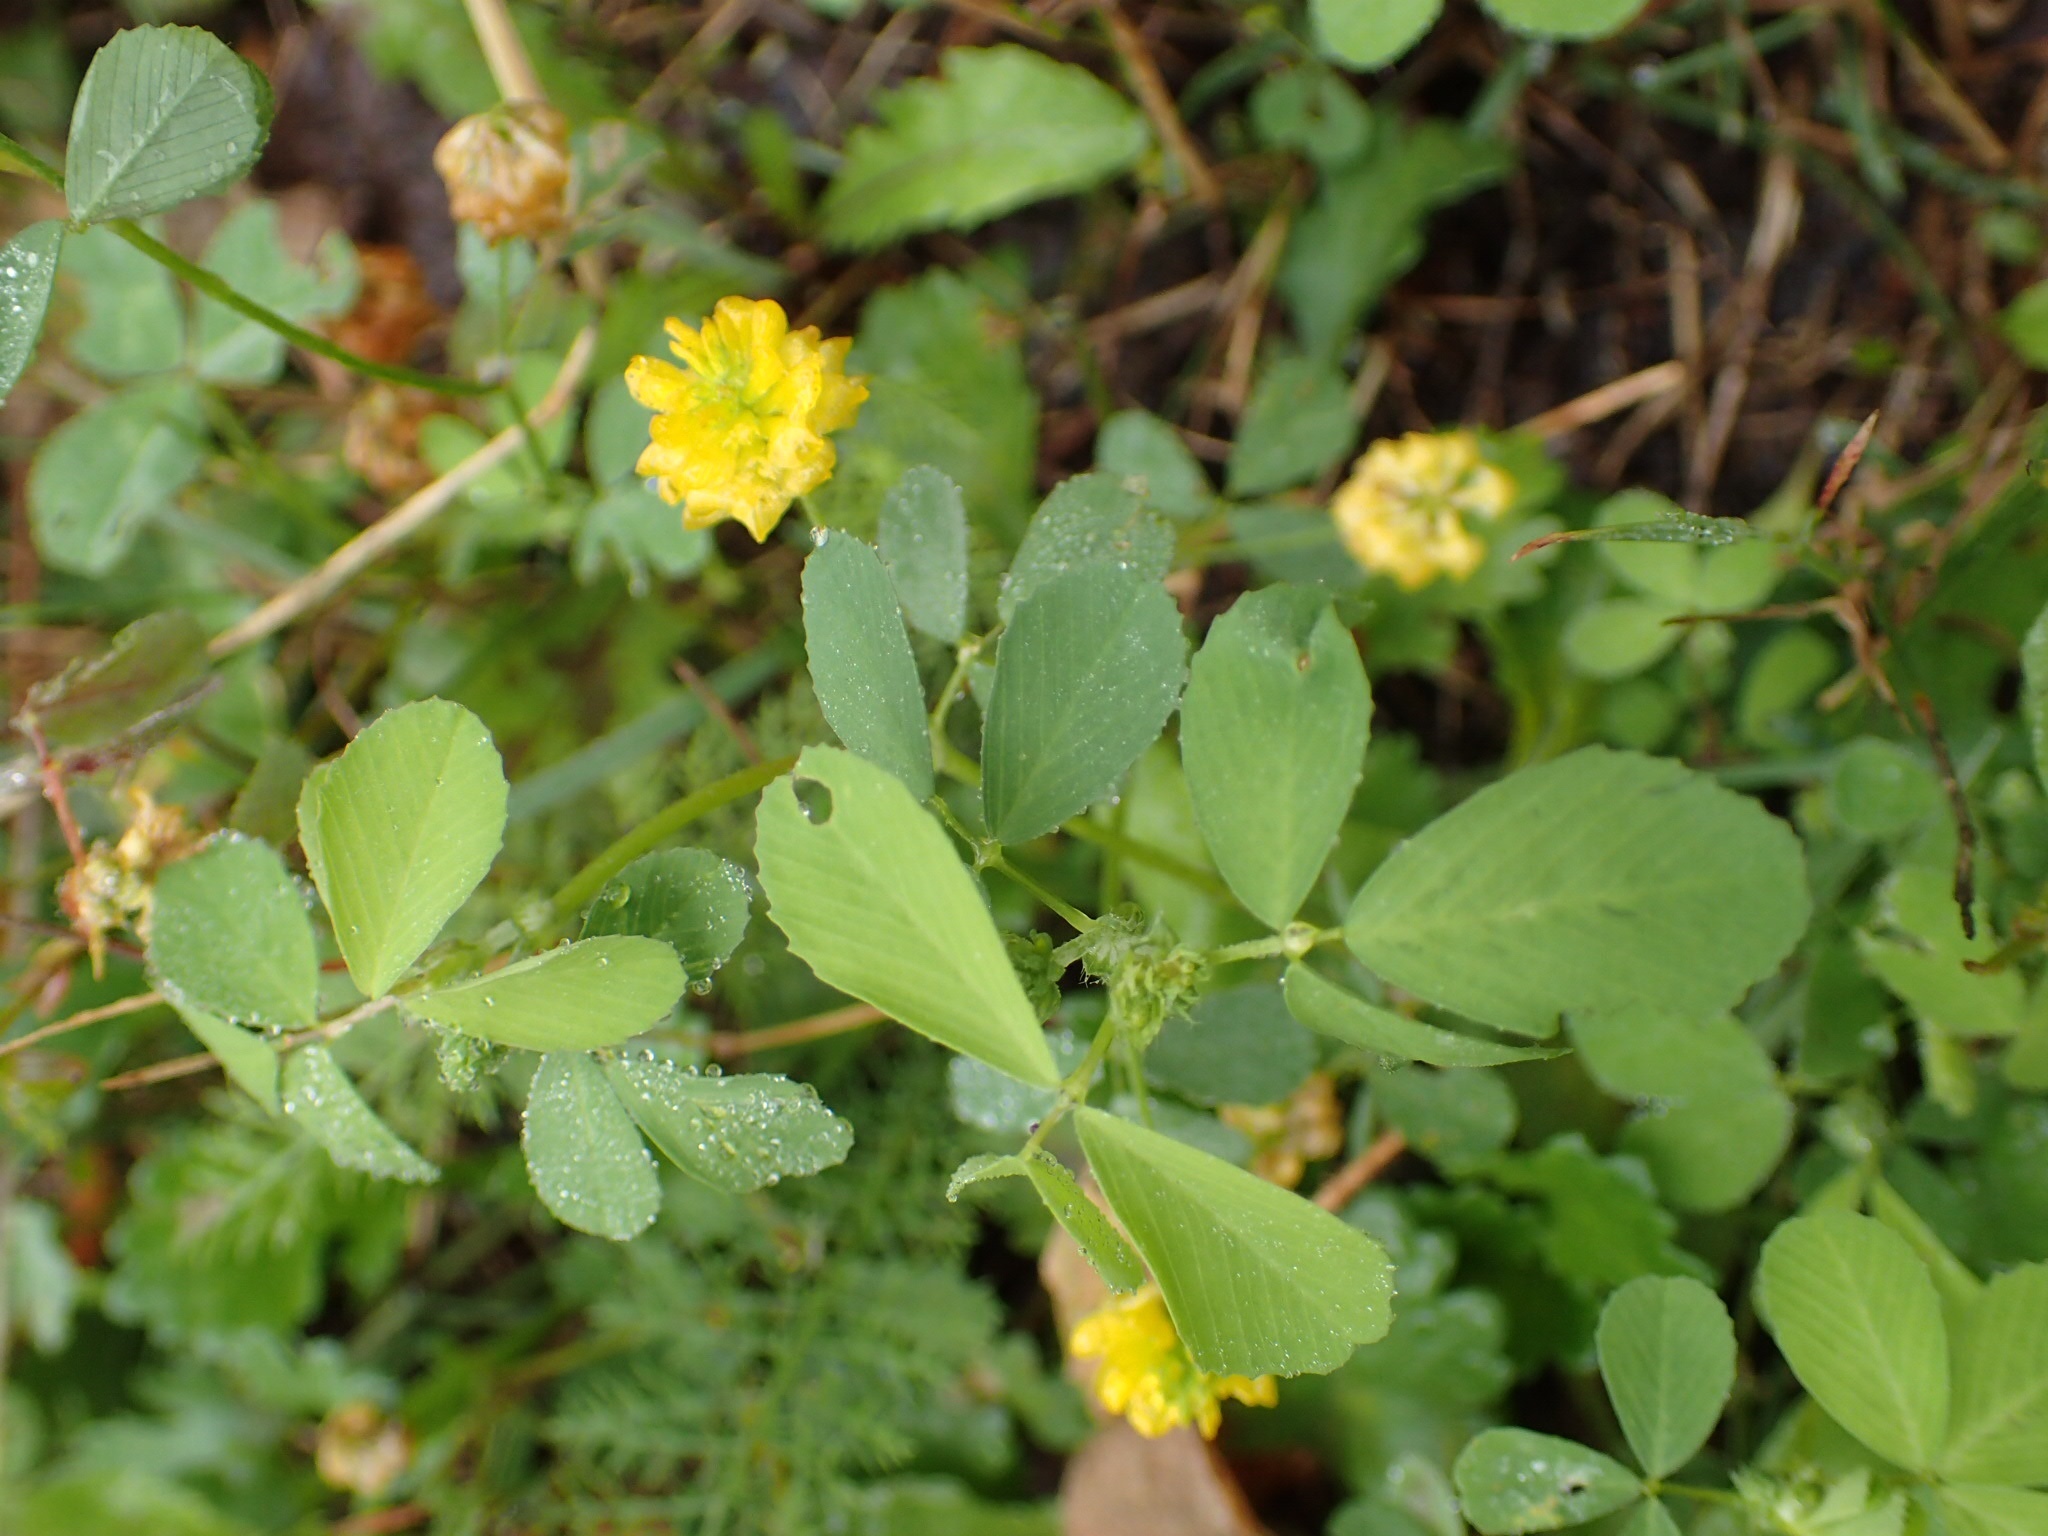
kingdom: Plantae
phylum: Tracheophyta
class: Magnoliopsida
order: Fabales
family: Fabaceae
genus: Trifolium
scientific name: Trifolium campestre
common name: Field clover
